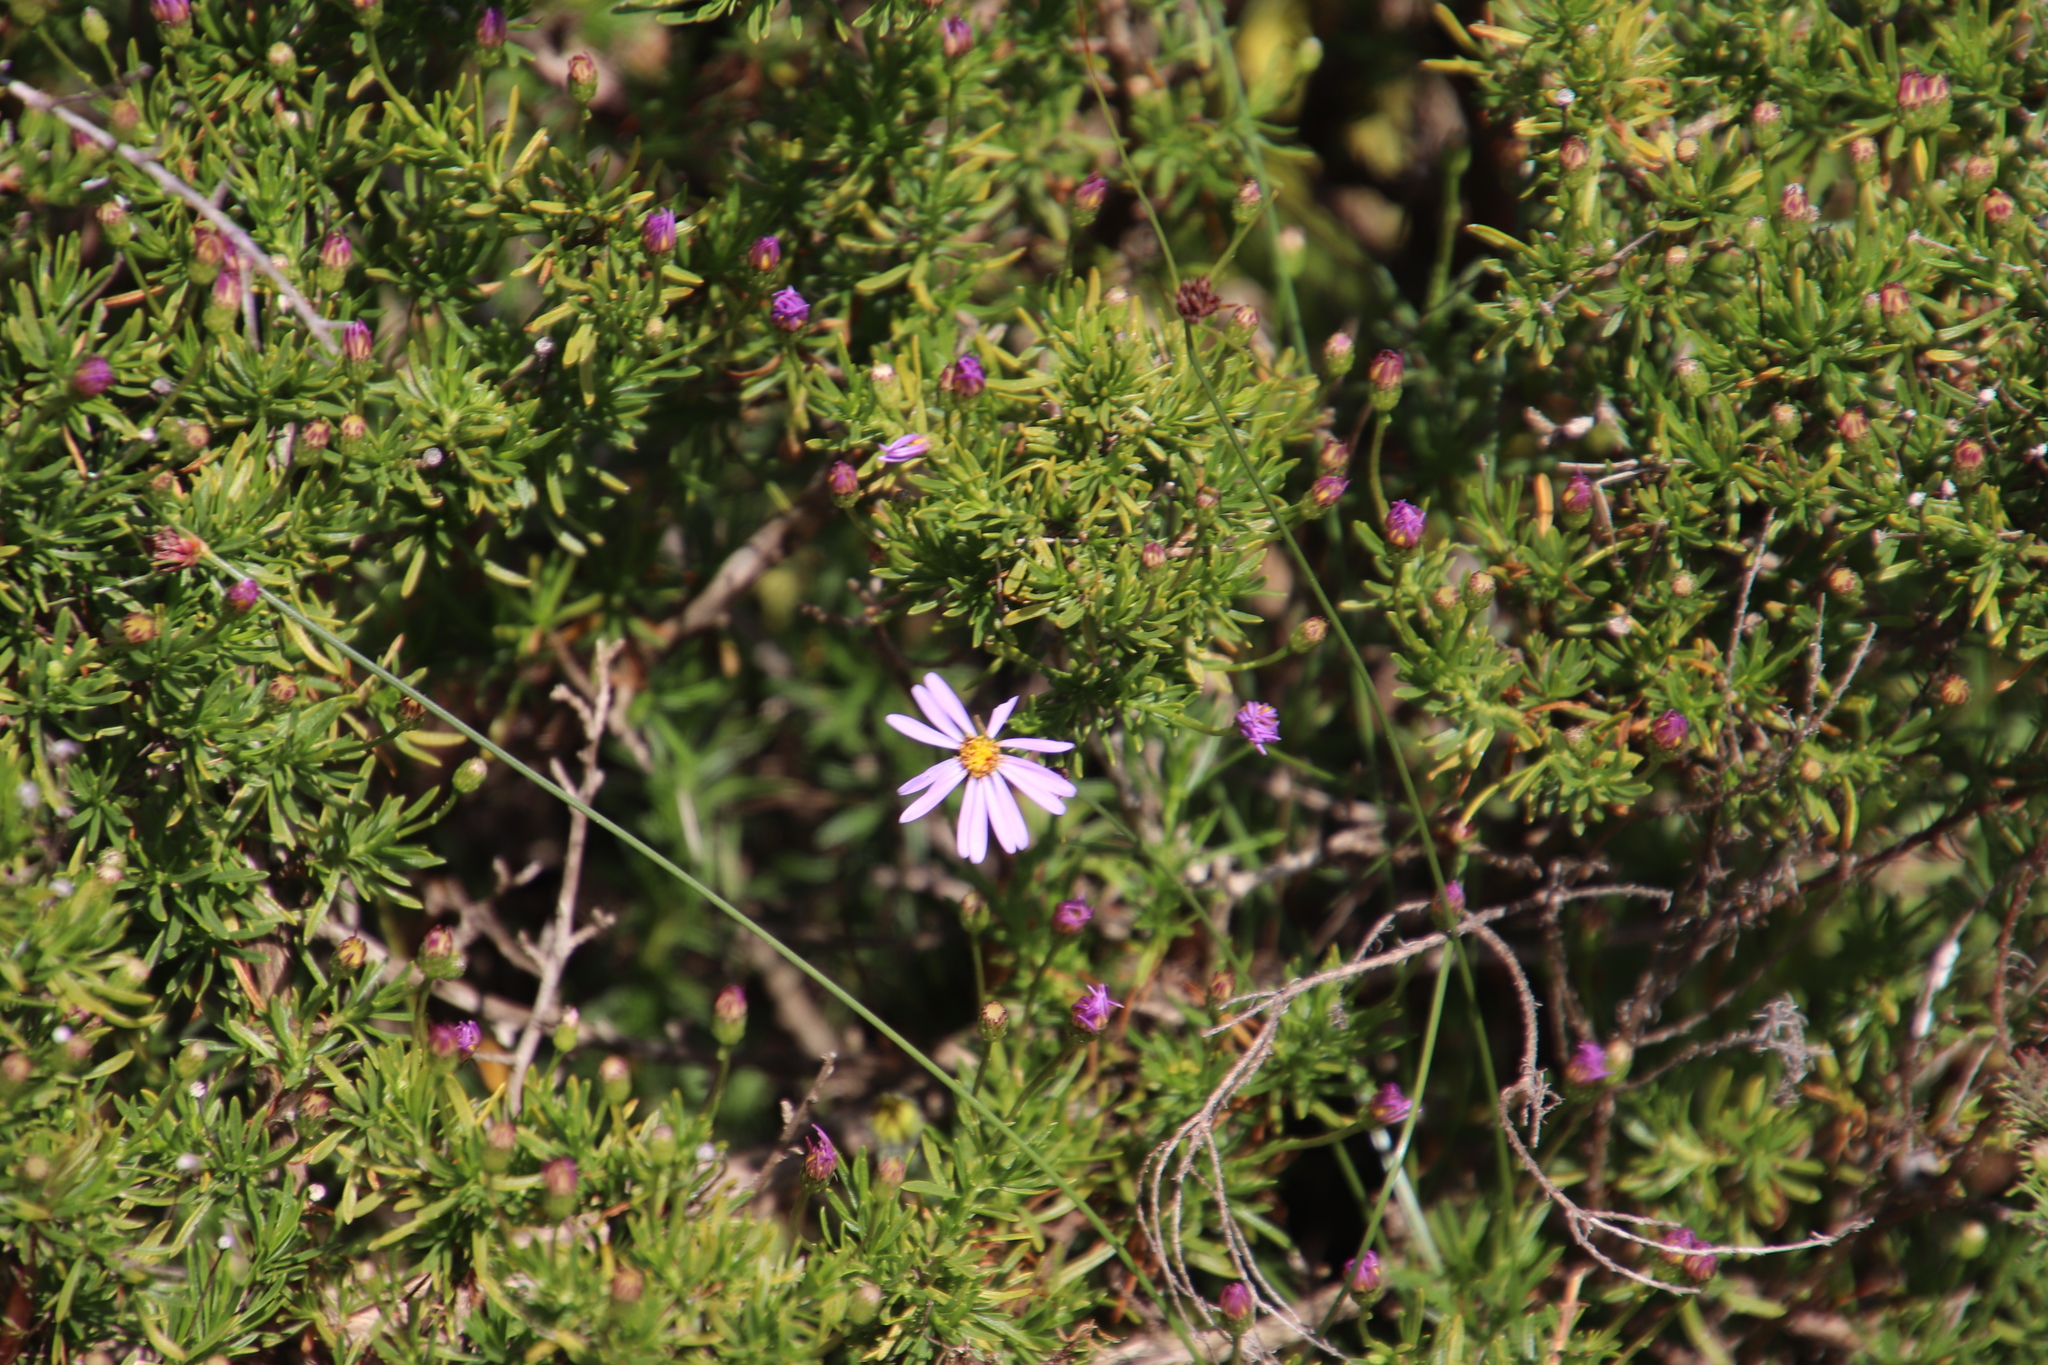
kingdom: Plantae
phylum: Tracheophyta
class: Magnoliopsida
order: Asterales
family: Asteraceae
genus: Felicia
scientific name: Felicia fruticosa
